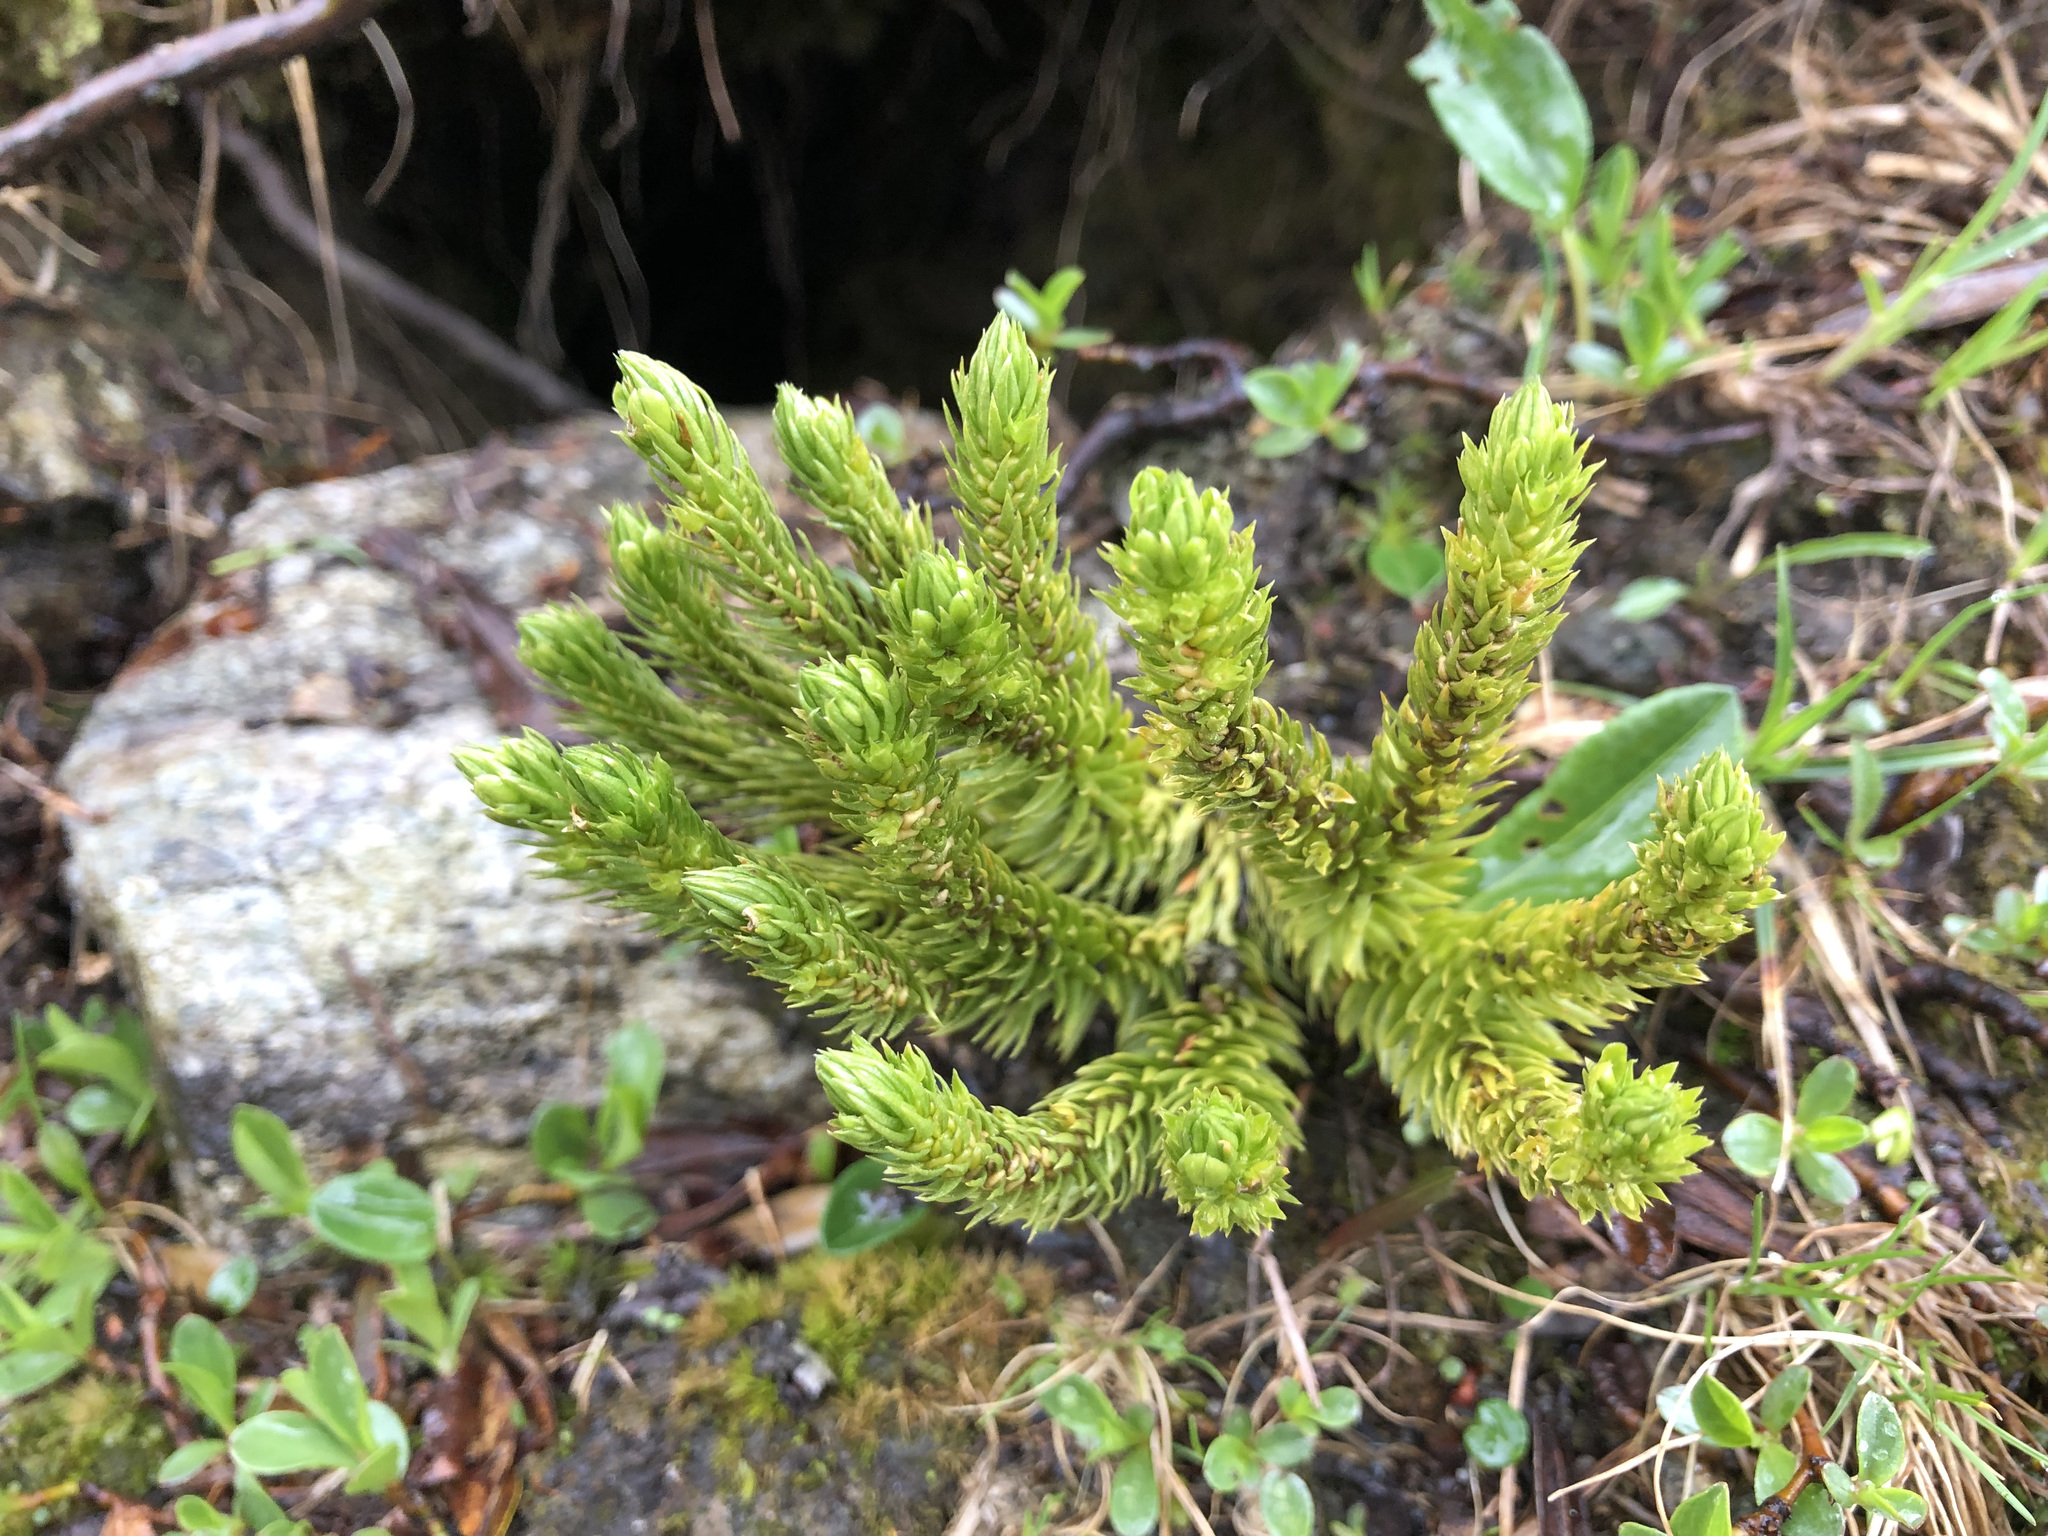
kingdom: Plantae
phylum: Tracheophyta
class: Lycopodiopsida
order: Lycopodiales
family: Lycopodiaceae
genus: Huperzia
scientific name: Huperzia selago
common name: Northern firmoss
